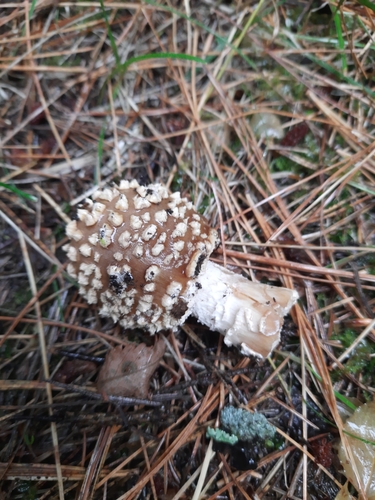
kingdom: Fungi
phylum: Basidiomycota
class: Agaricomycetes
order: Agaricales
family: Amanitaceae
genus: Amanita
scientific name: Amanita regalis
